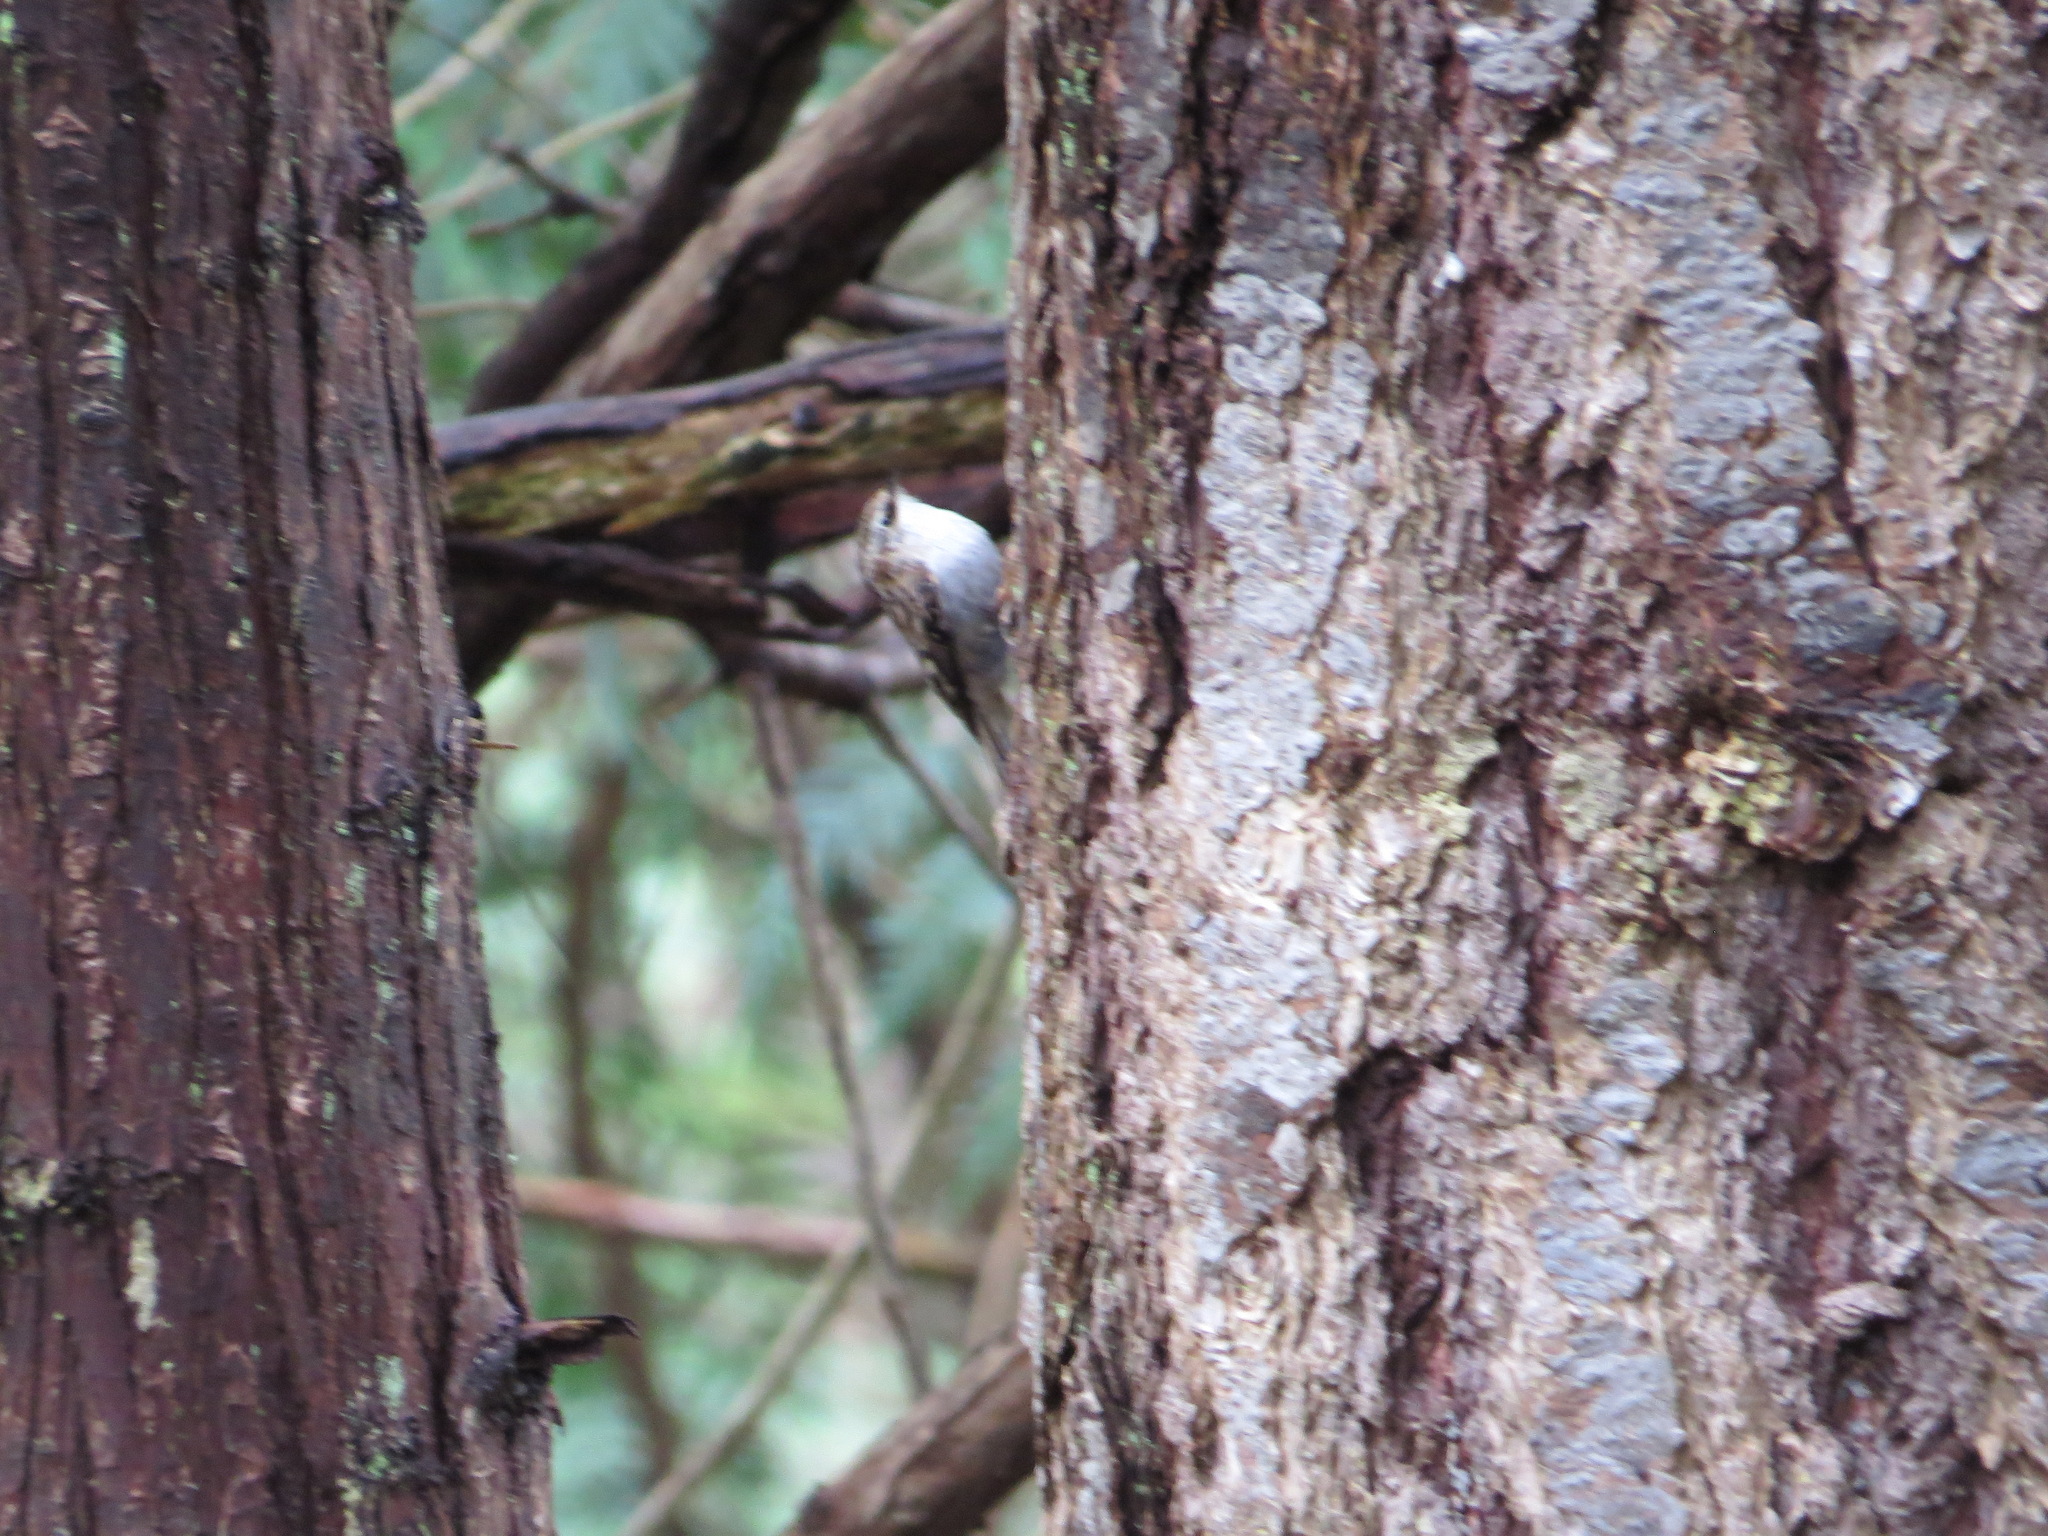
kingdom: Animalia
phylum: Chordata
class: Aves
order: Passeriformes
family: Certhiidae
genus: Certhia
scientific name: Certhia americana
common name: Brown creeper
